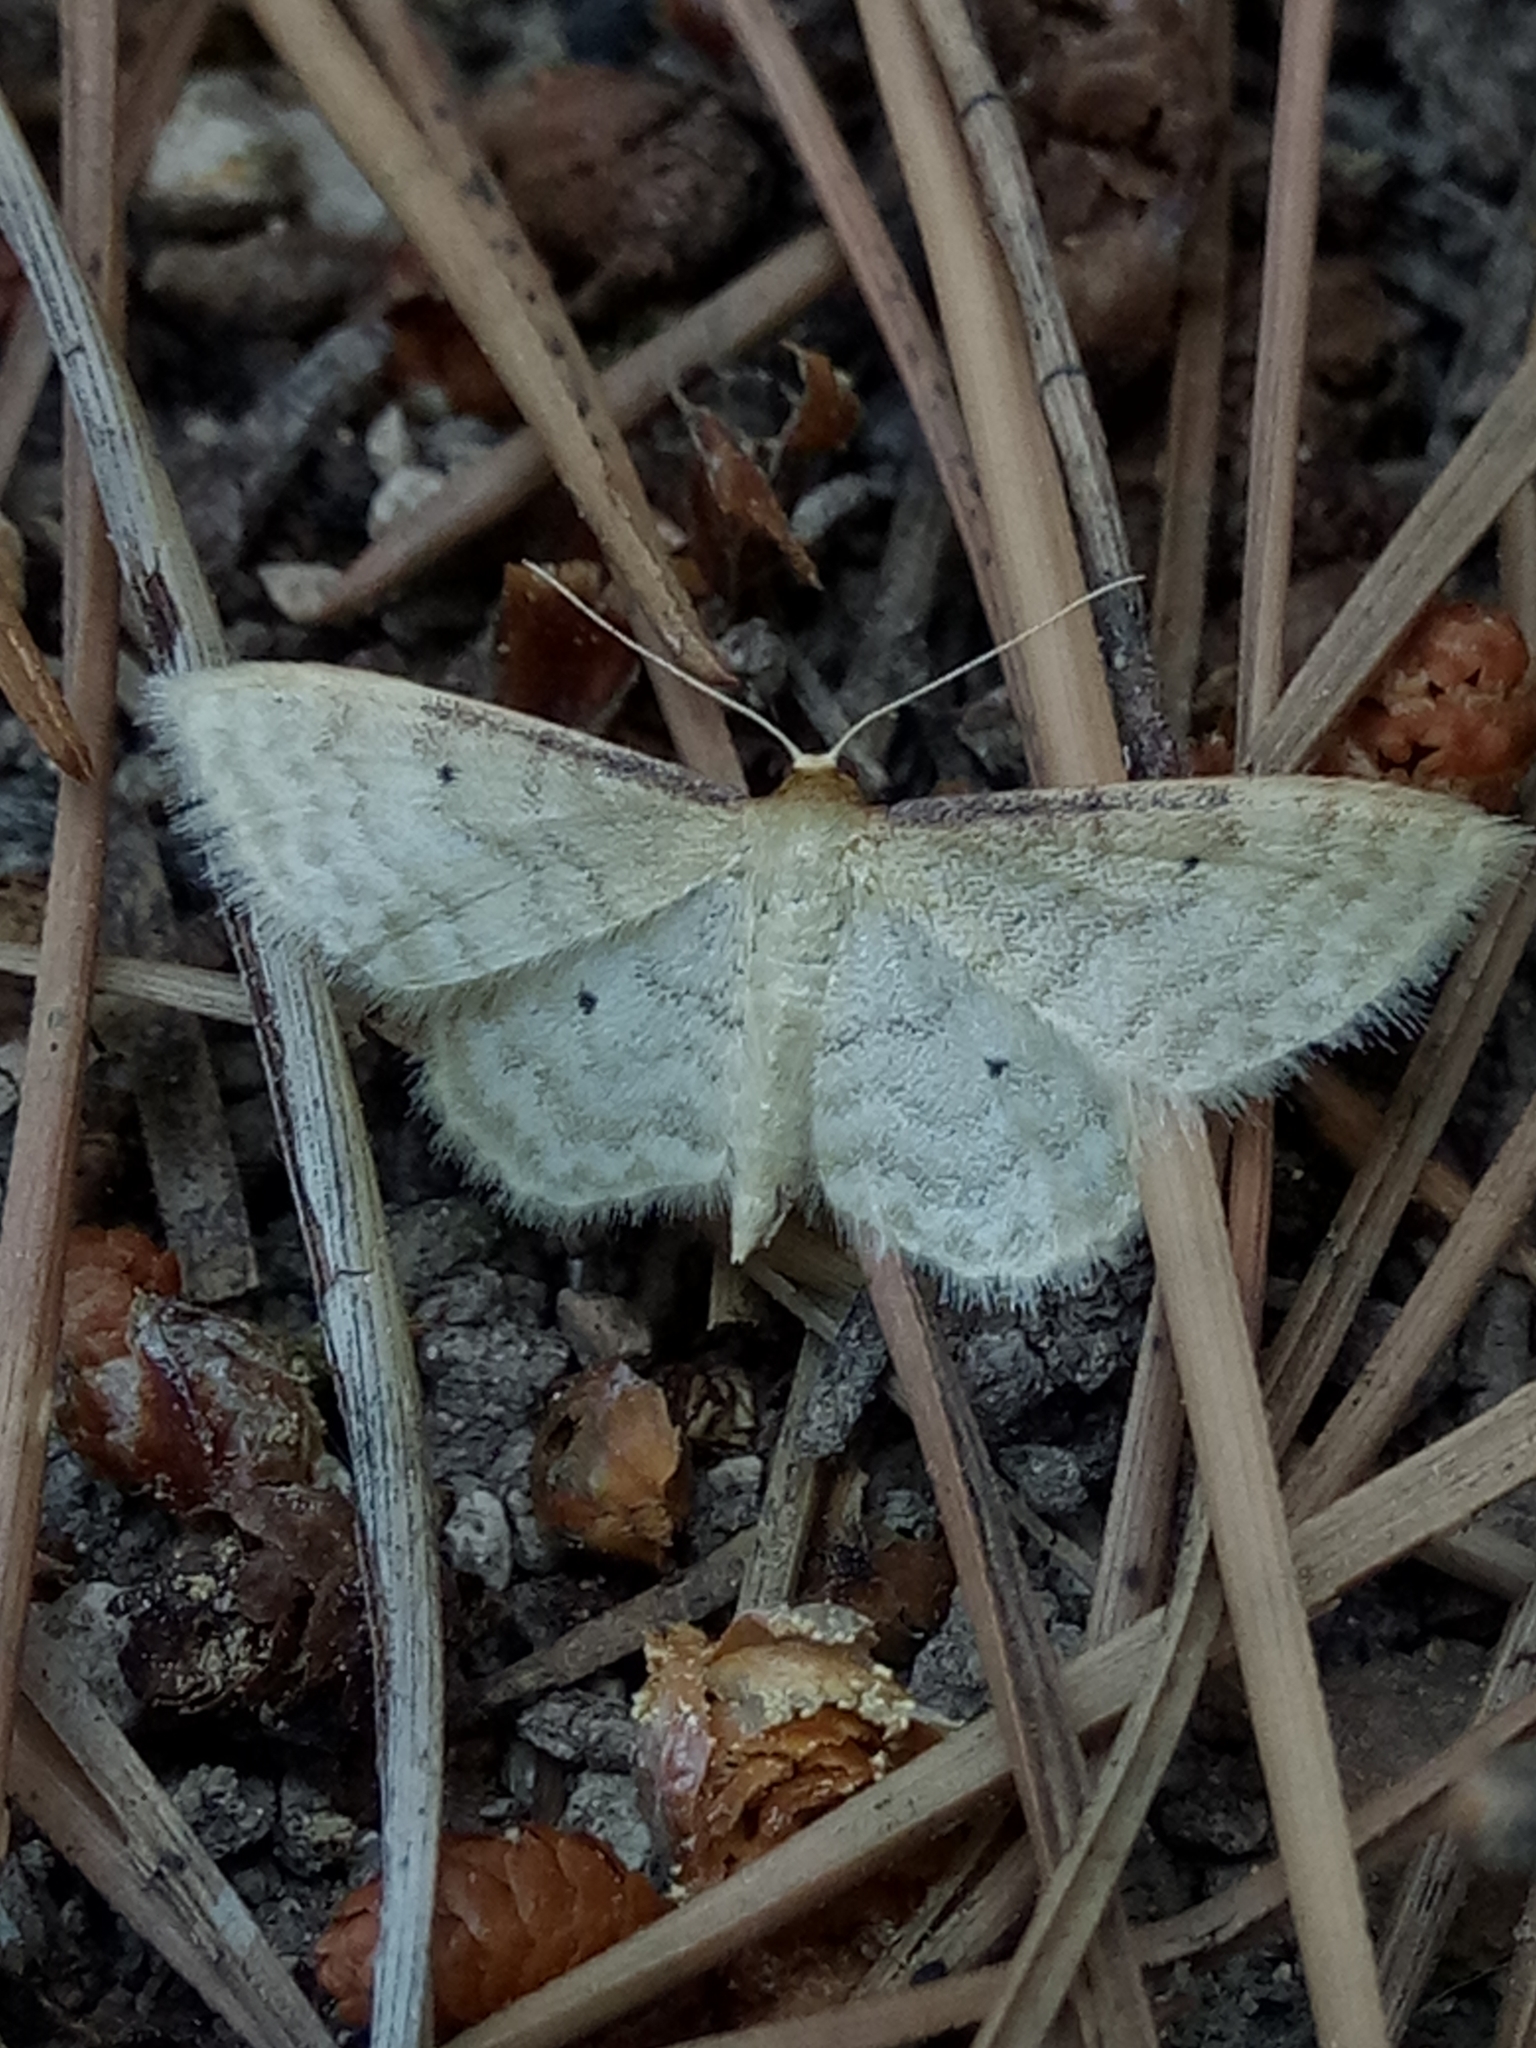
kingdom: Animalia
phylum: Arthropoda
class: Insecta
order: Lepidoptera
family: Geometridae
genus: Idaea
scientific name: Idaea humiliata
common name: Isle of wight wave
